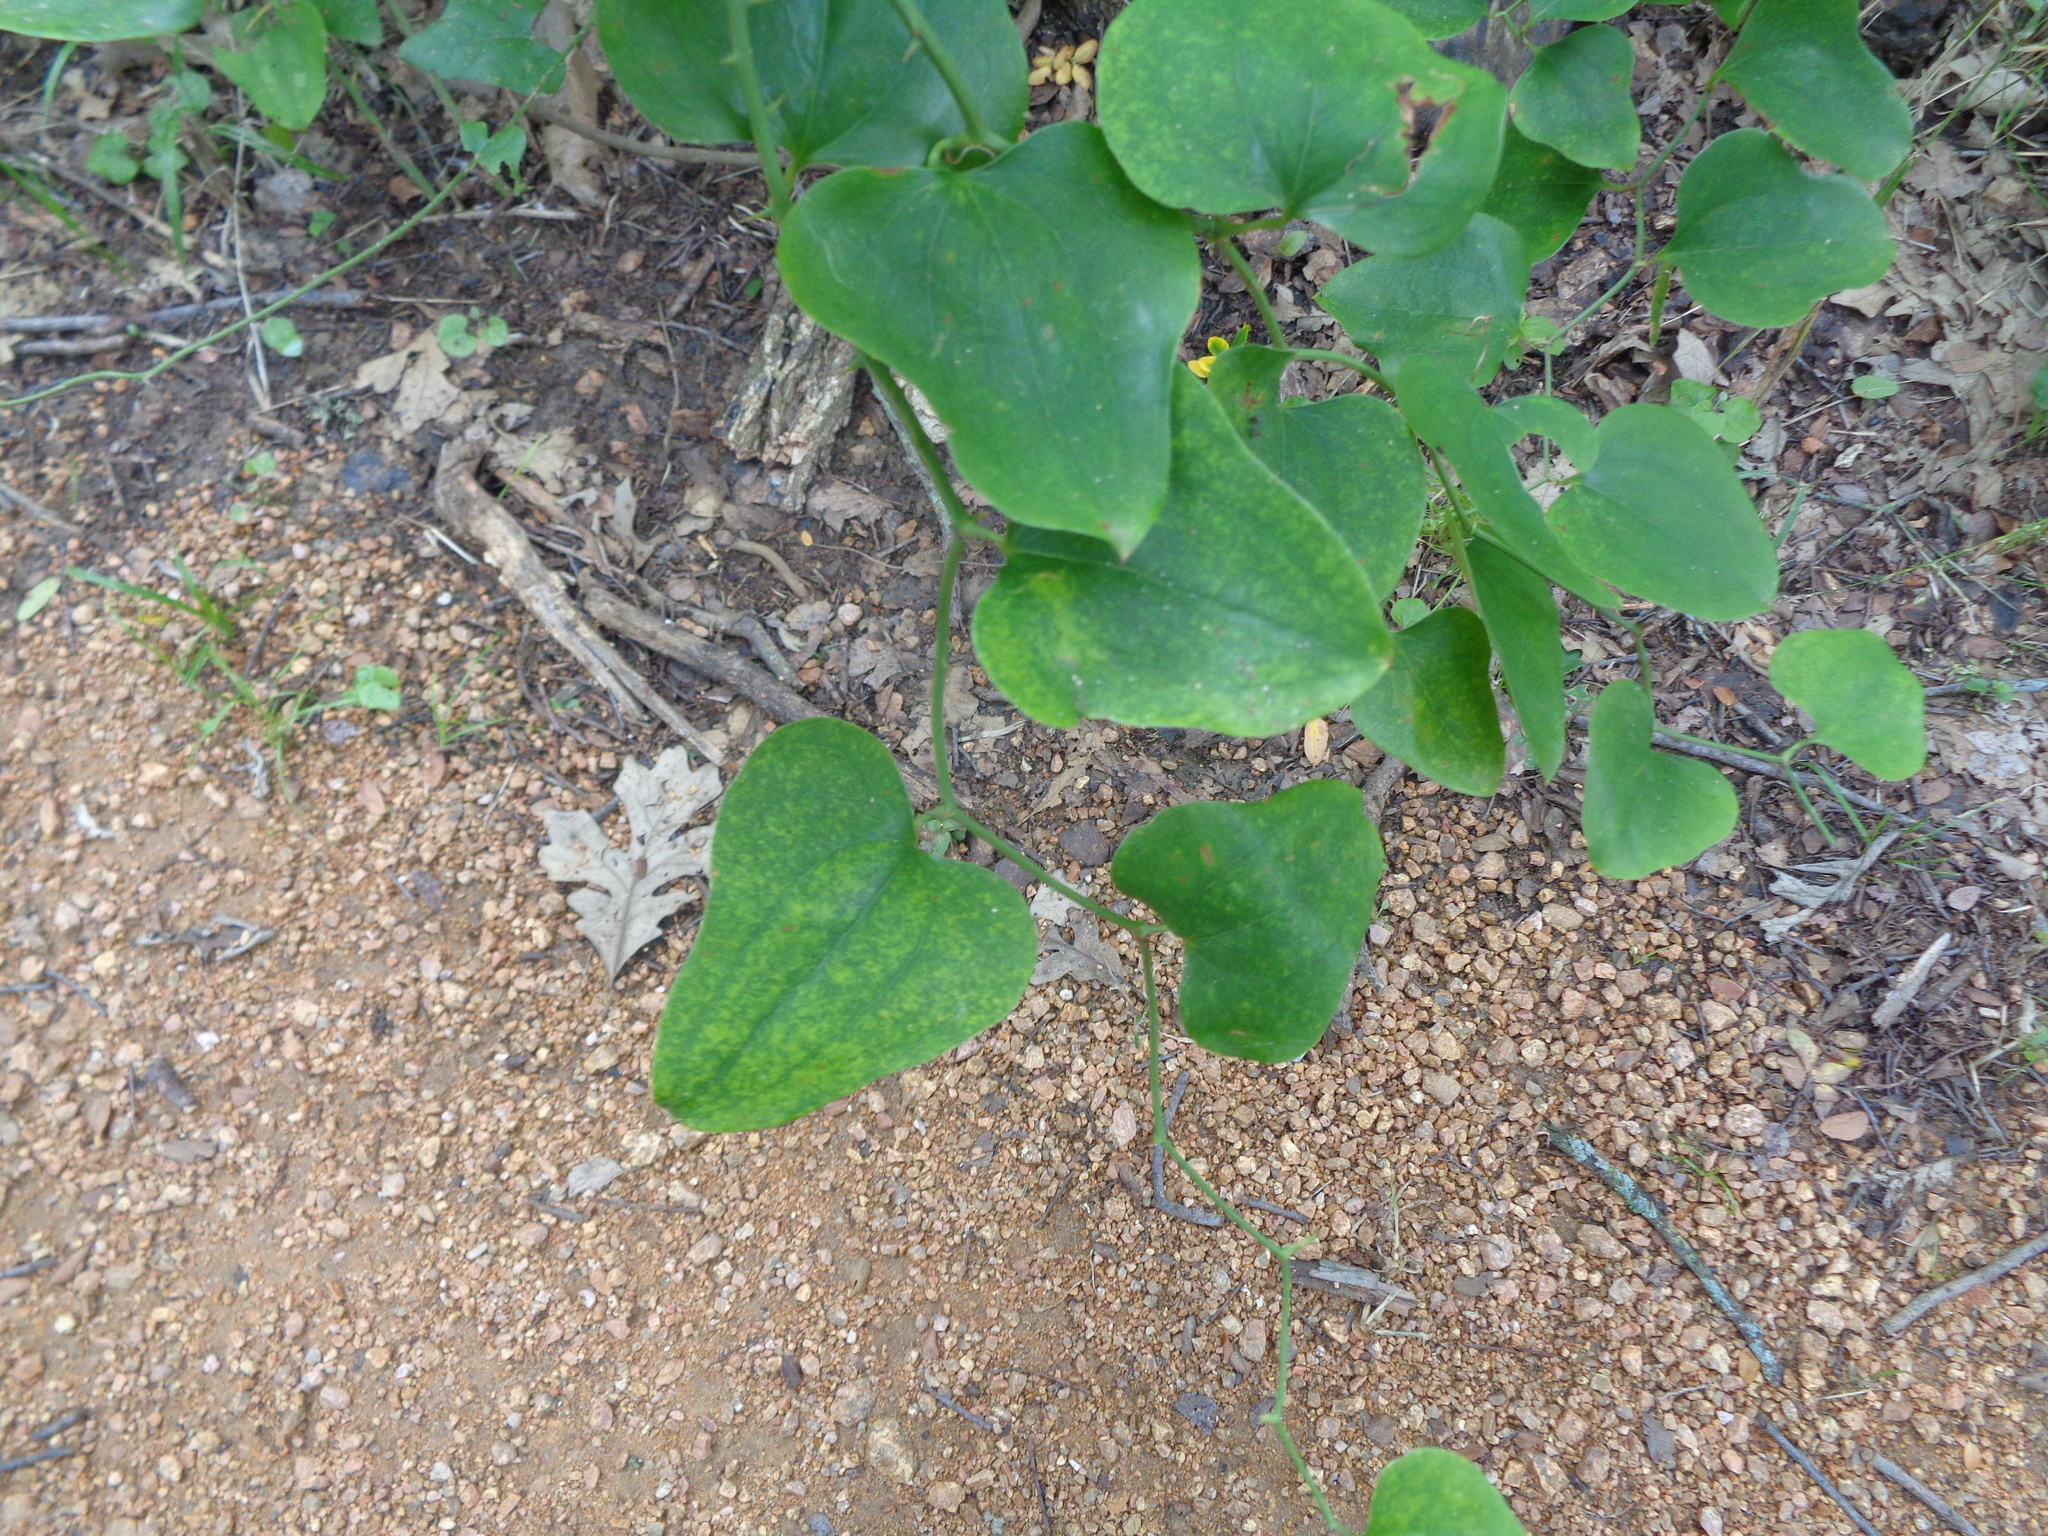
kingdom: Plantae
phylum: Tracheophyta
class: Liliopsida
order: Liliales
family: Smilacaceae
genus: Smilax
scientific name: Smilax bona-nox
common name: Catbrier
